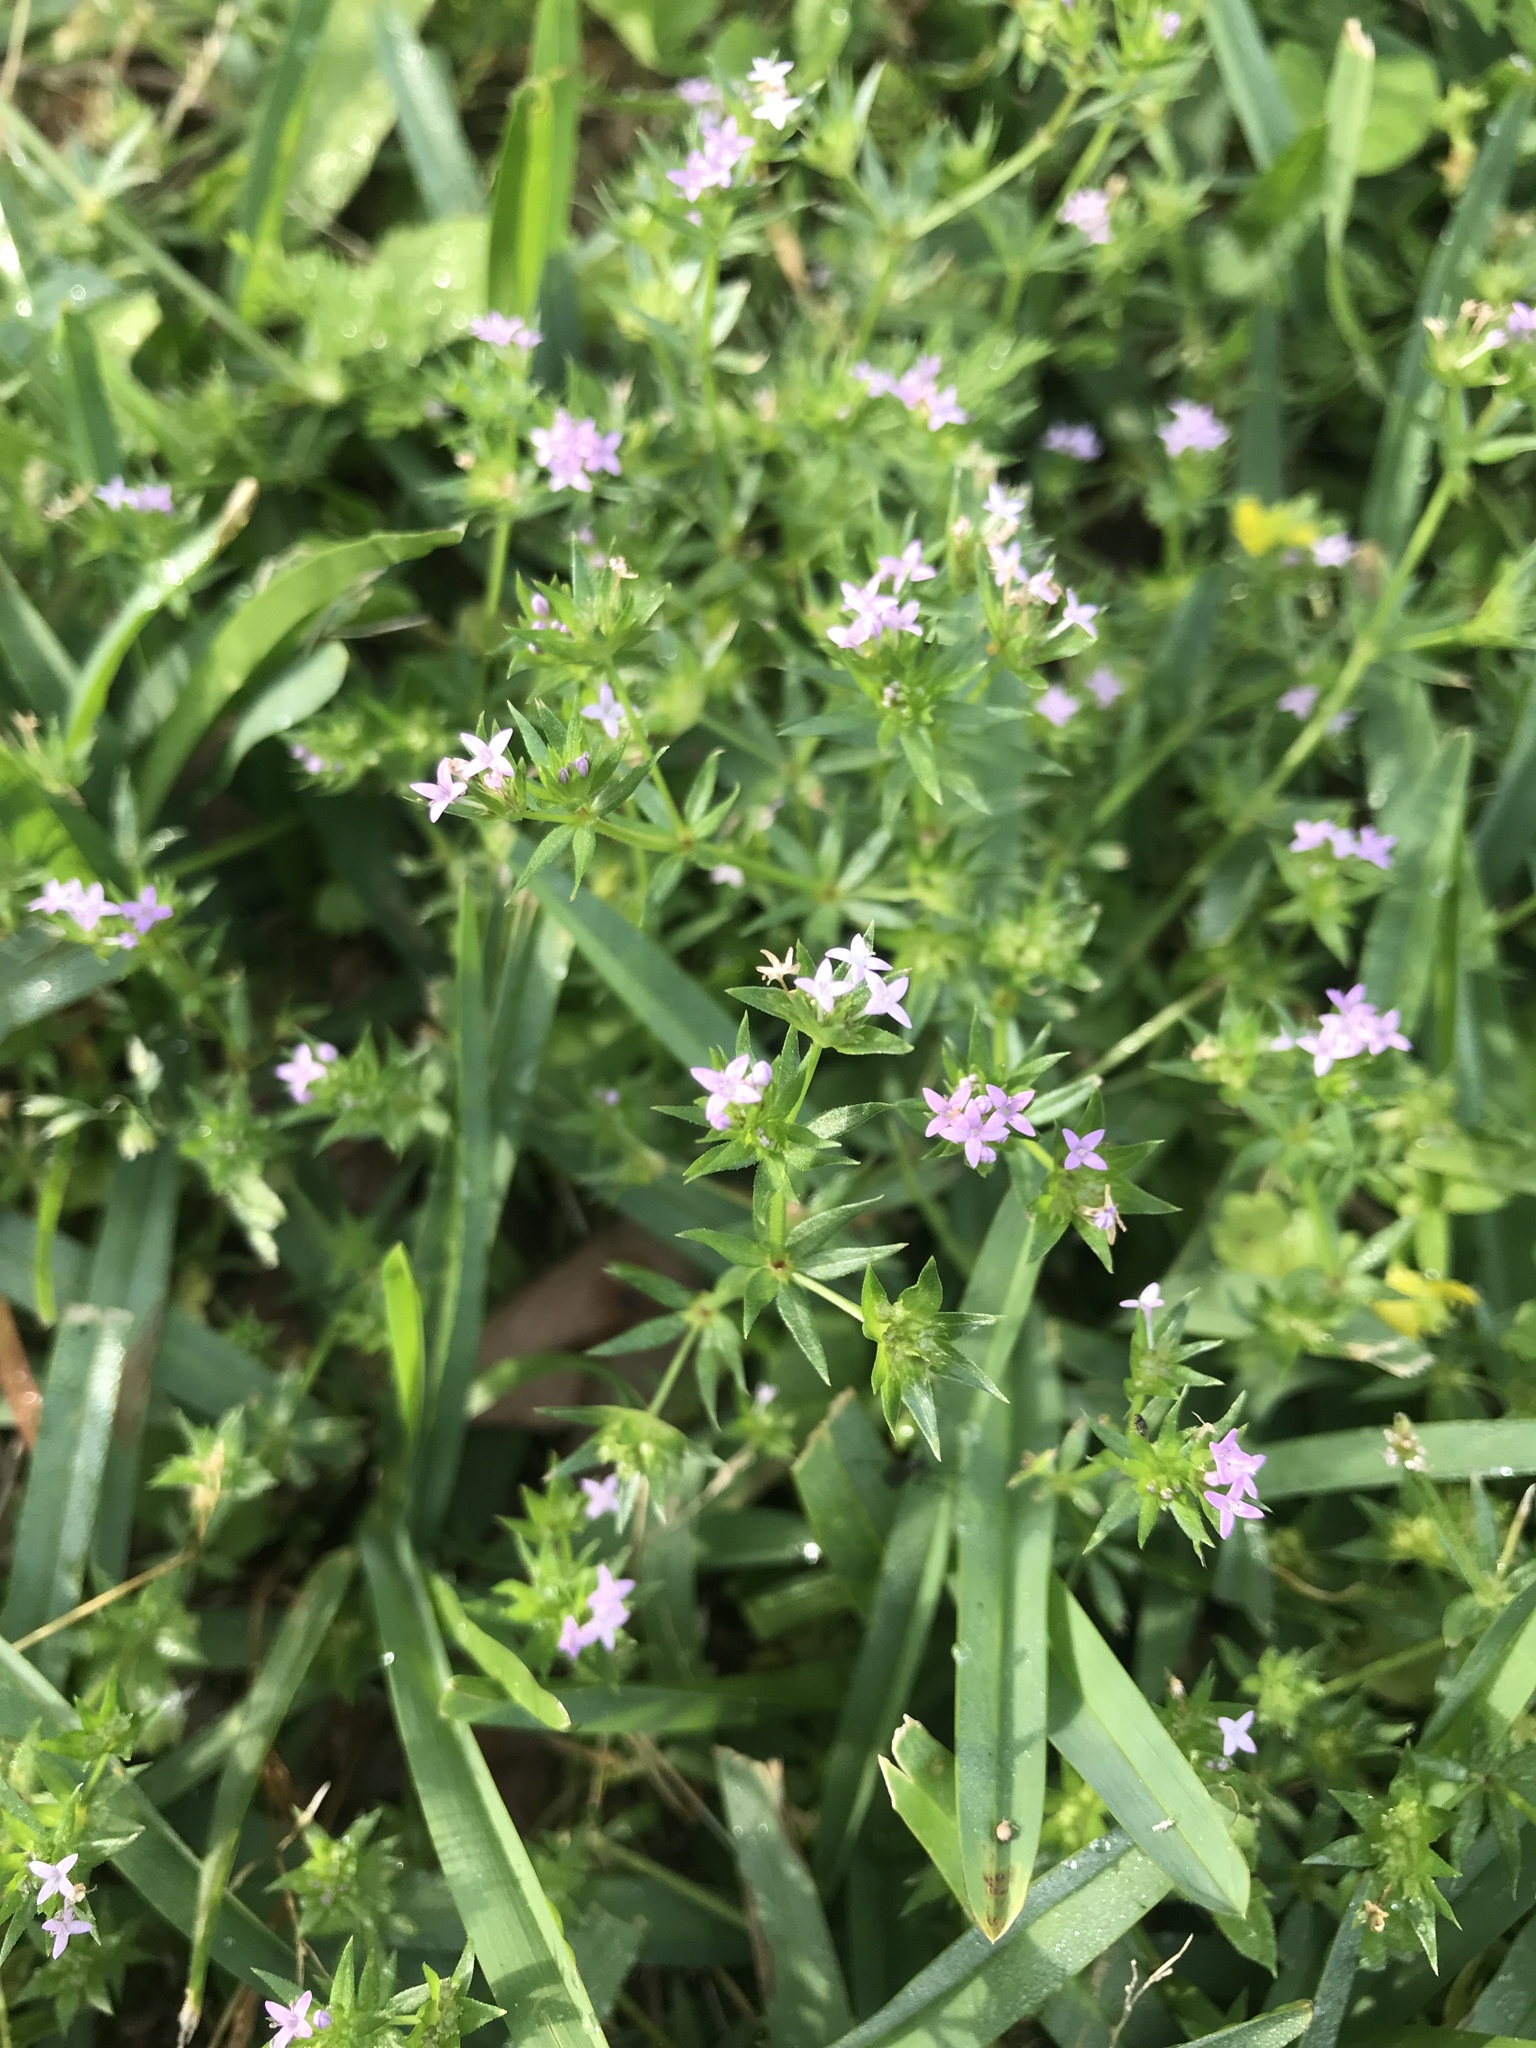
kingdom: Plantae
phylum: Tracheophyta
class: Magnoliopsida
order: Gentianales
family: Rubiaceae
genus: Sherardia
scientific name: Sherardia arvensis
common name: Field madder
